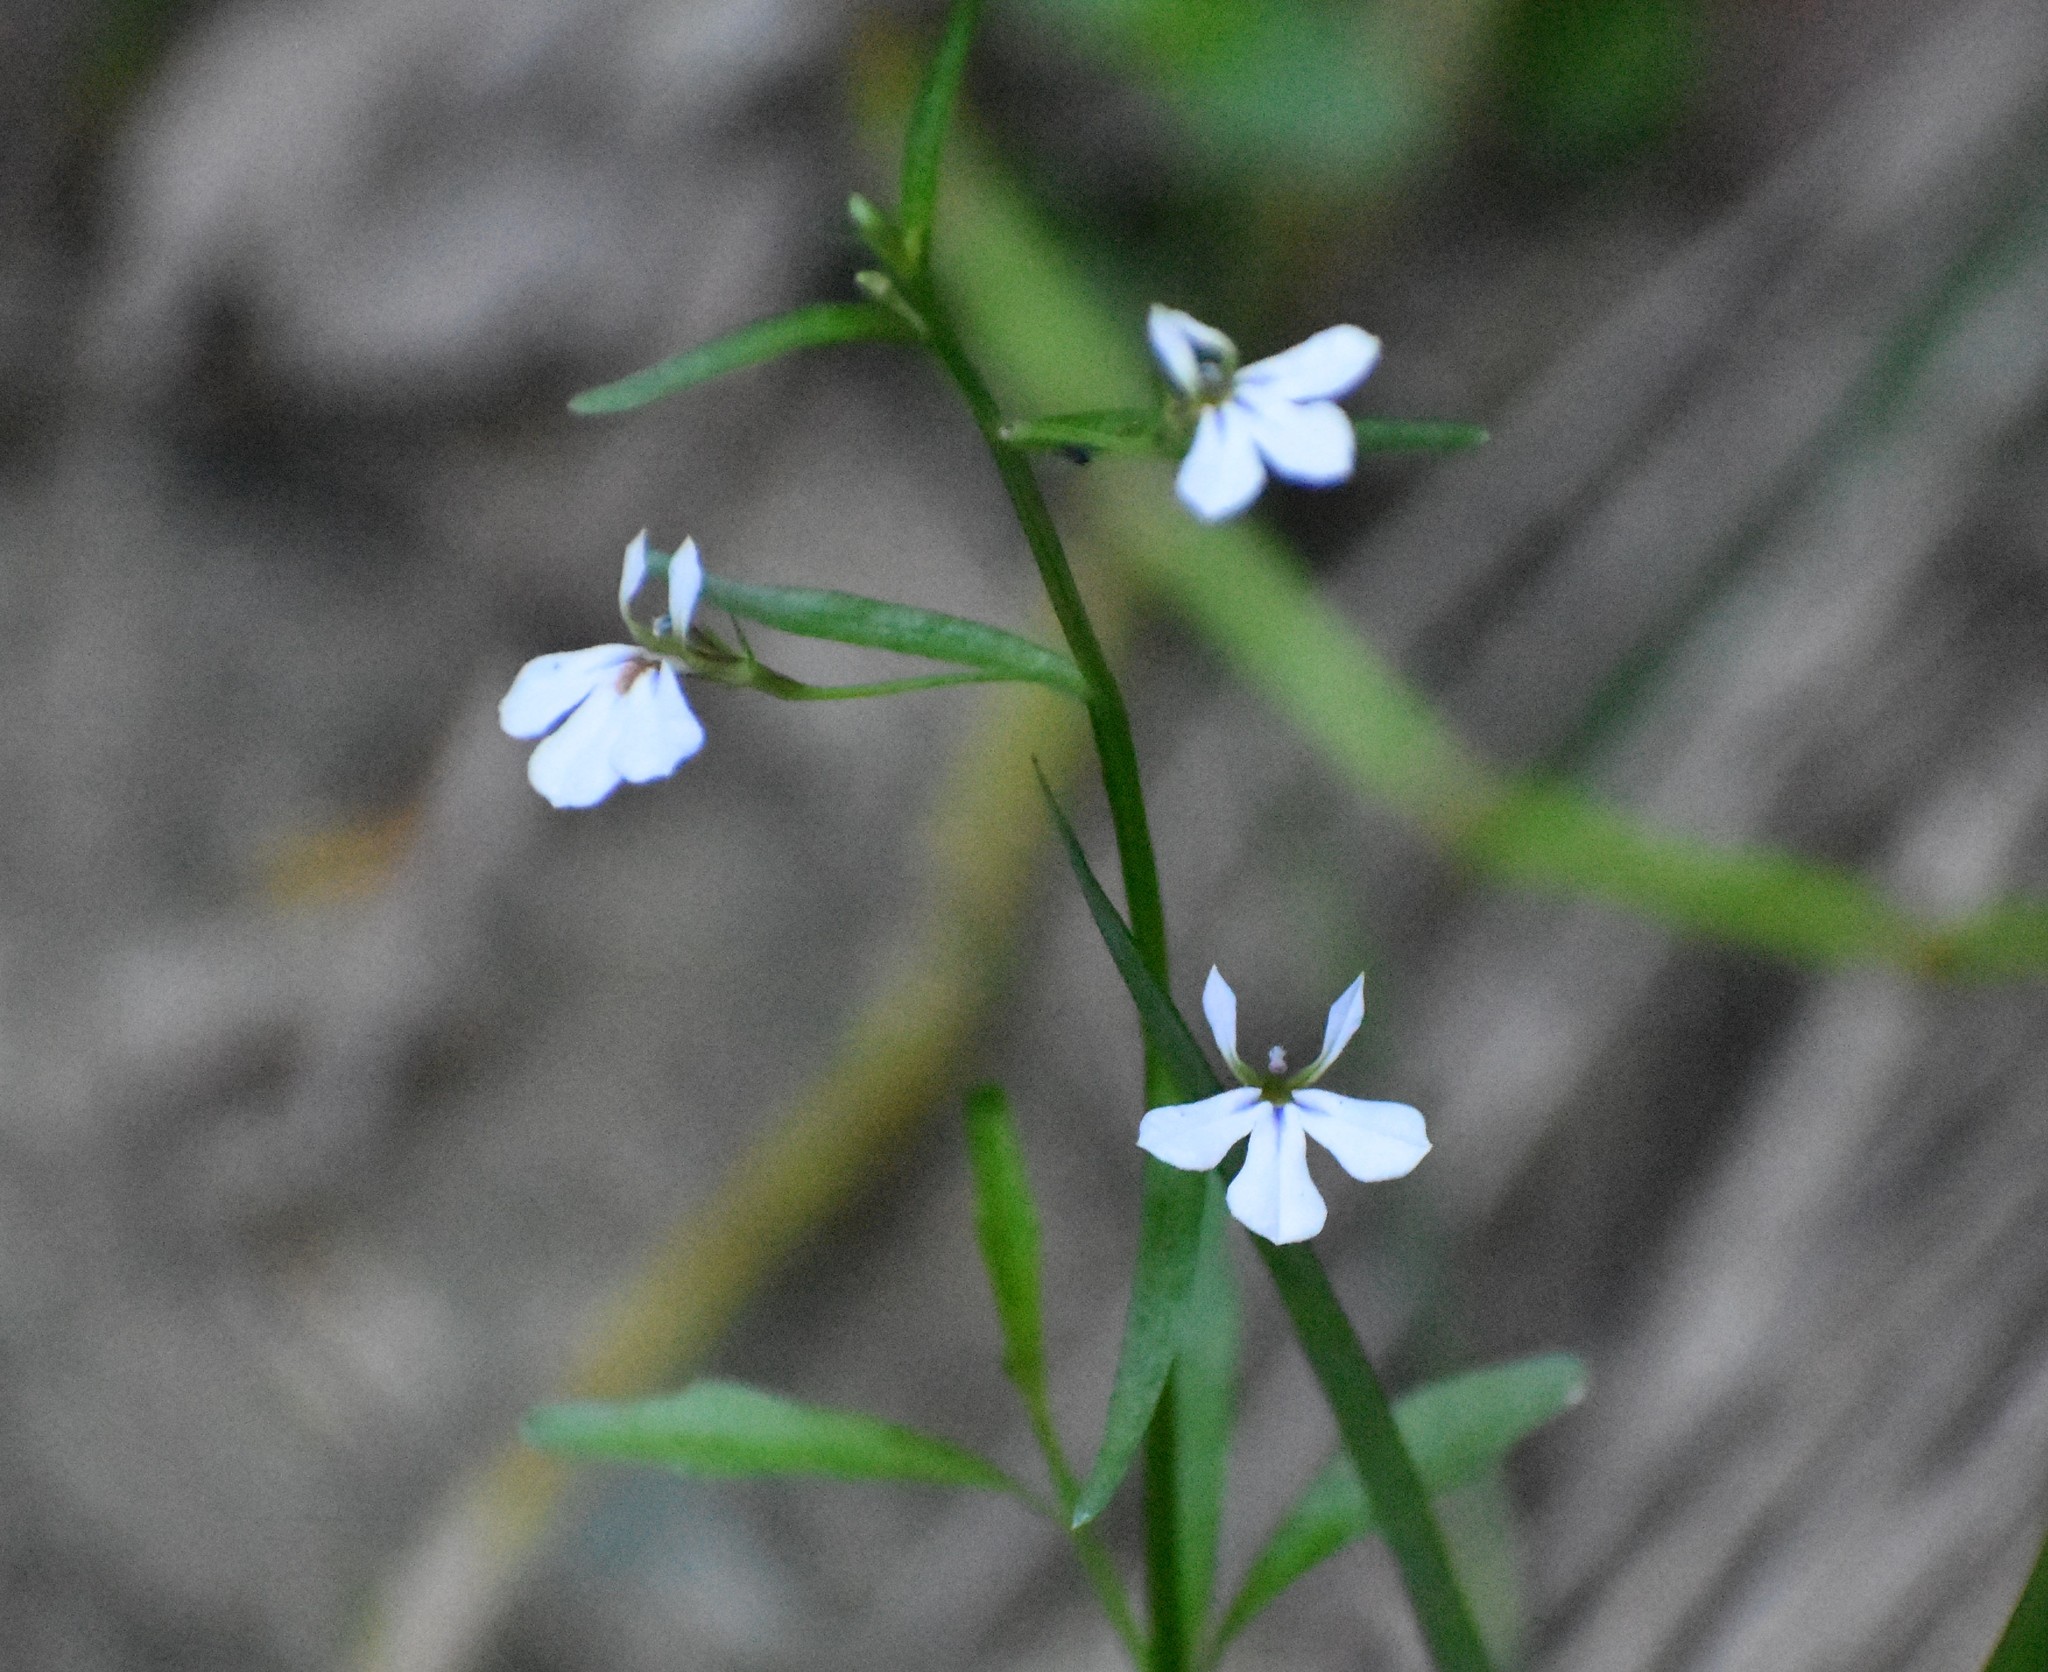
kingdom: Plantae
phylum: Tracheophyta
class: Magnoliopsida
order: Asterales
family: Campanulaceae
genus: Lobelia
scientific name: Lobelia anceps
